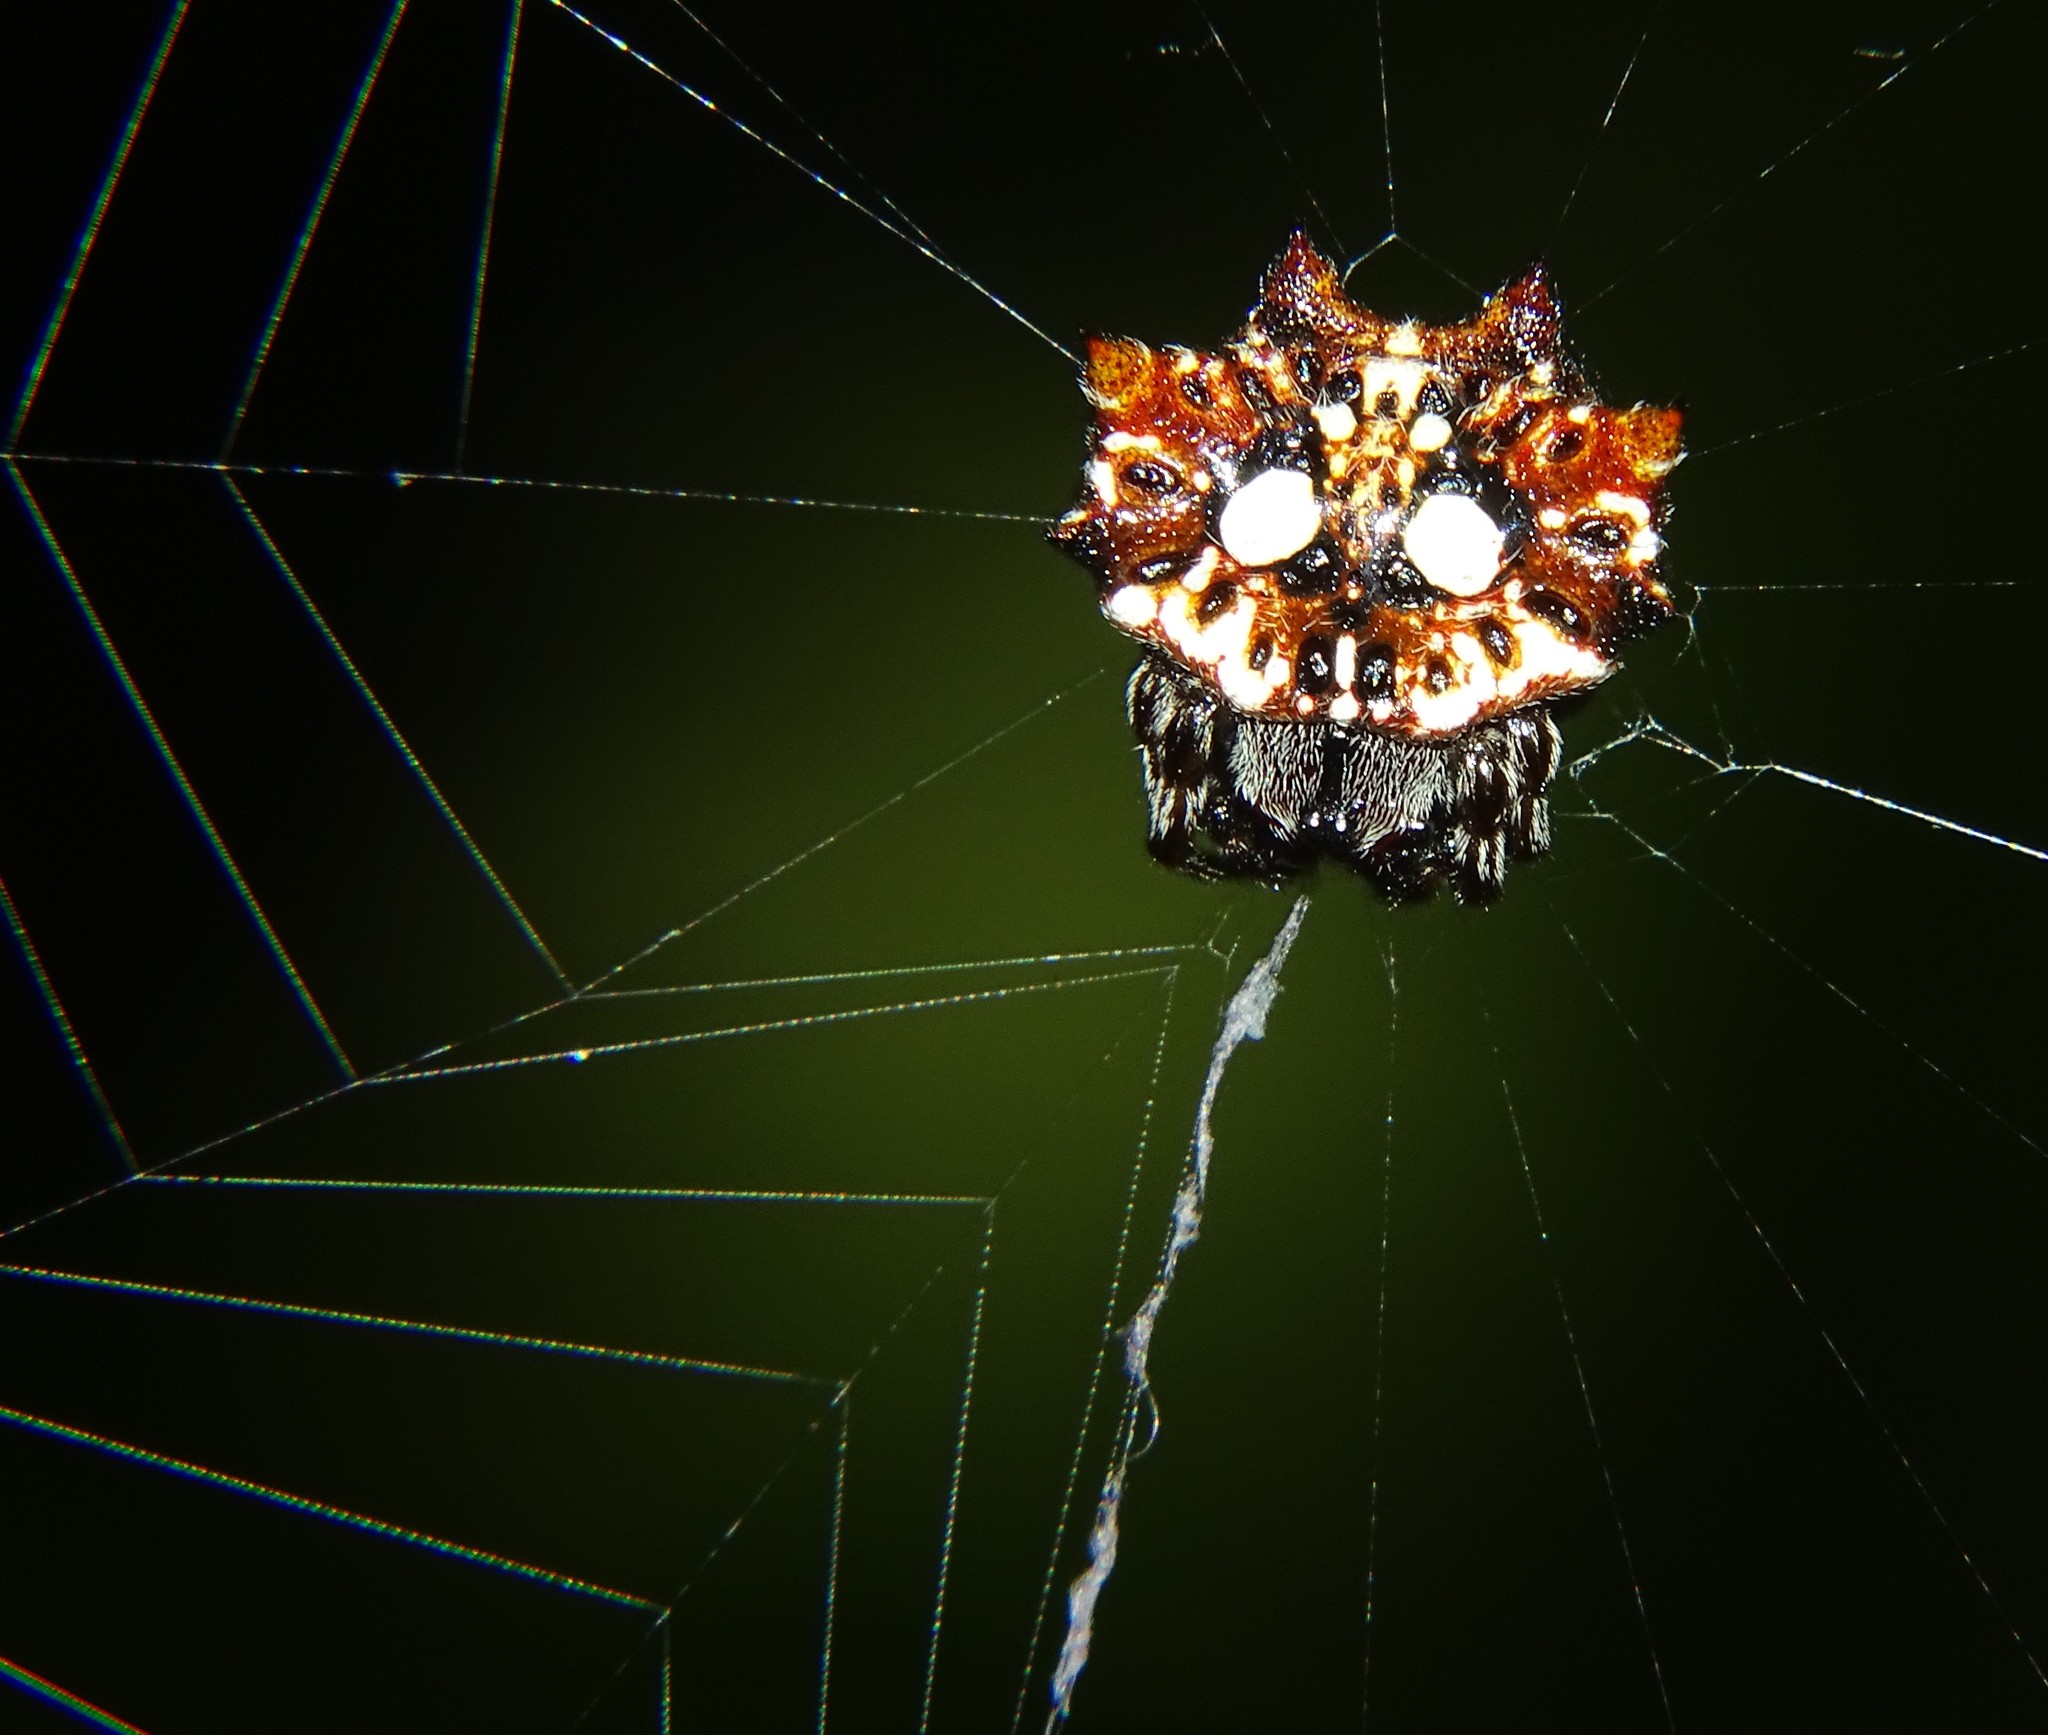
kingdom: Animalia
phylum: Arthropoda
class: Arachnida
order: Araneae
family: Araneidae
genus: Thelacantha
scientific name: Thelacantha brevispina
